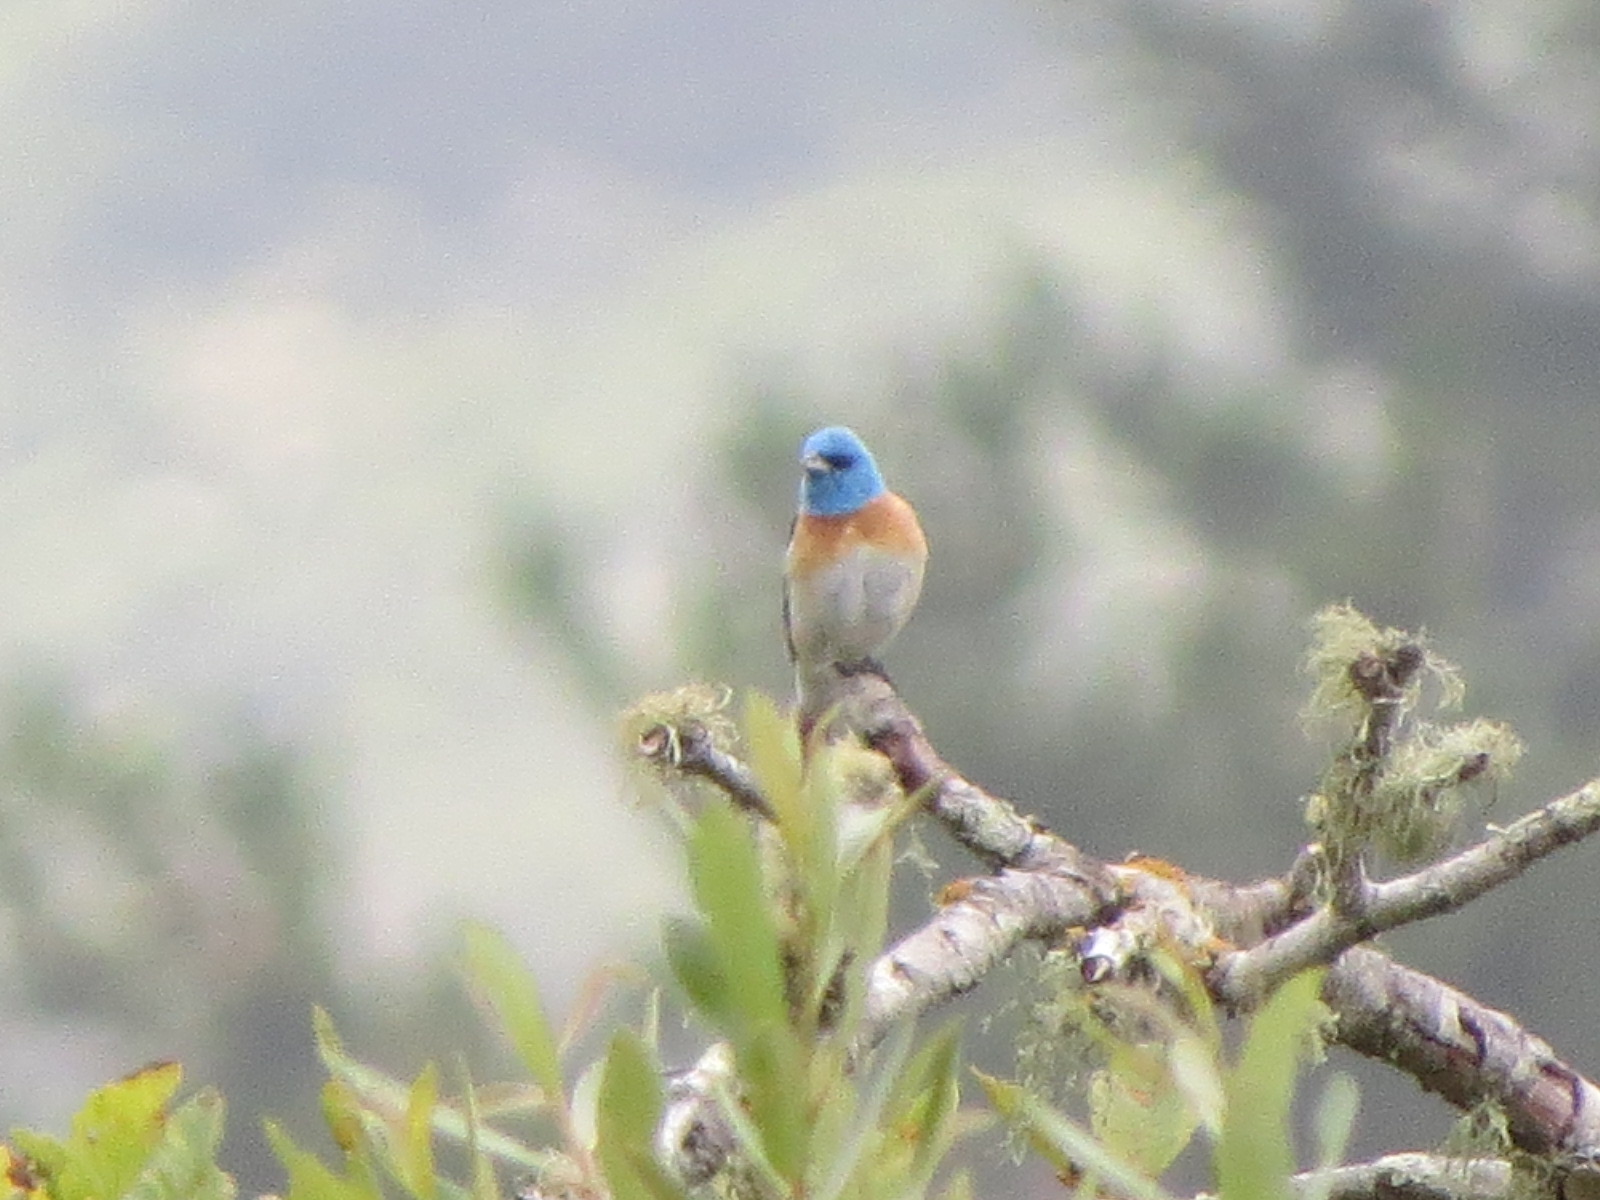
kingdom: Animalia
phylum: Chordata
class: Aves
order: Passeriformes
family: Cardinalidae
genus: Passerina
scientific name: Passerina amoena
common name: Lazuli bunting
